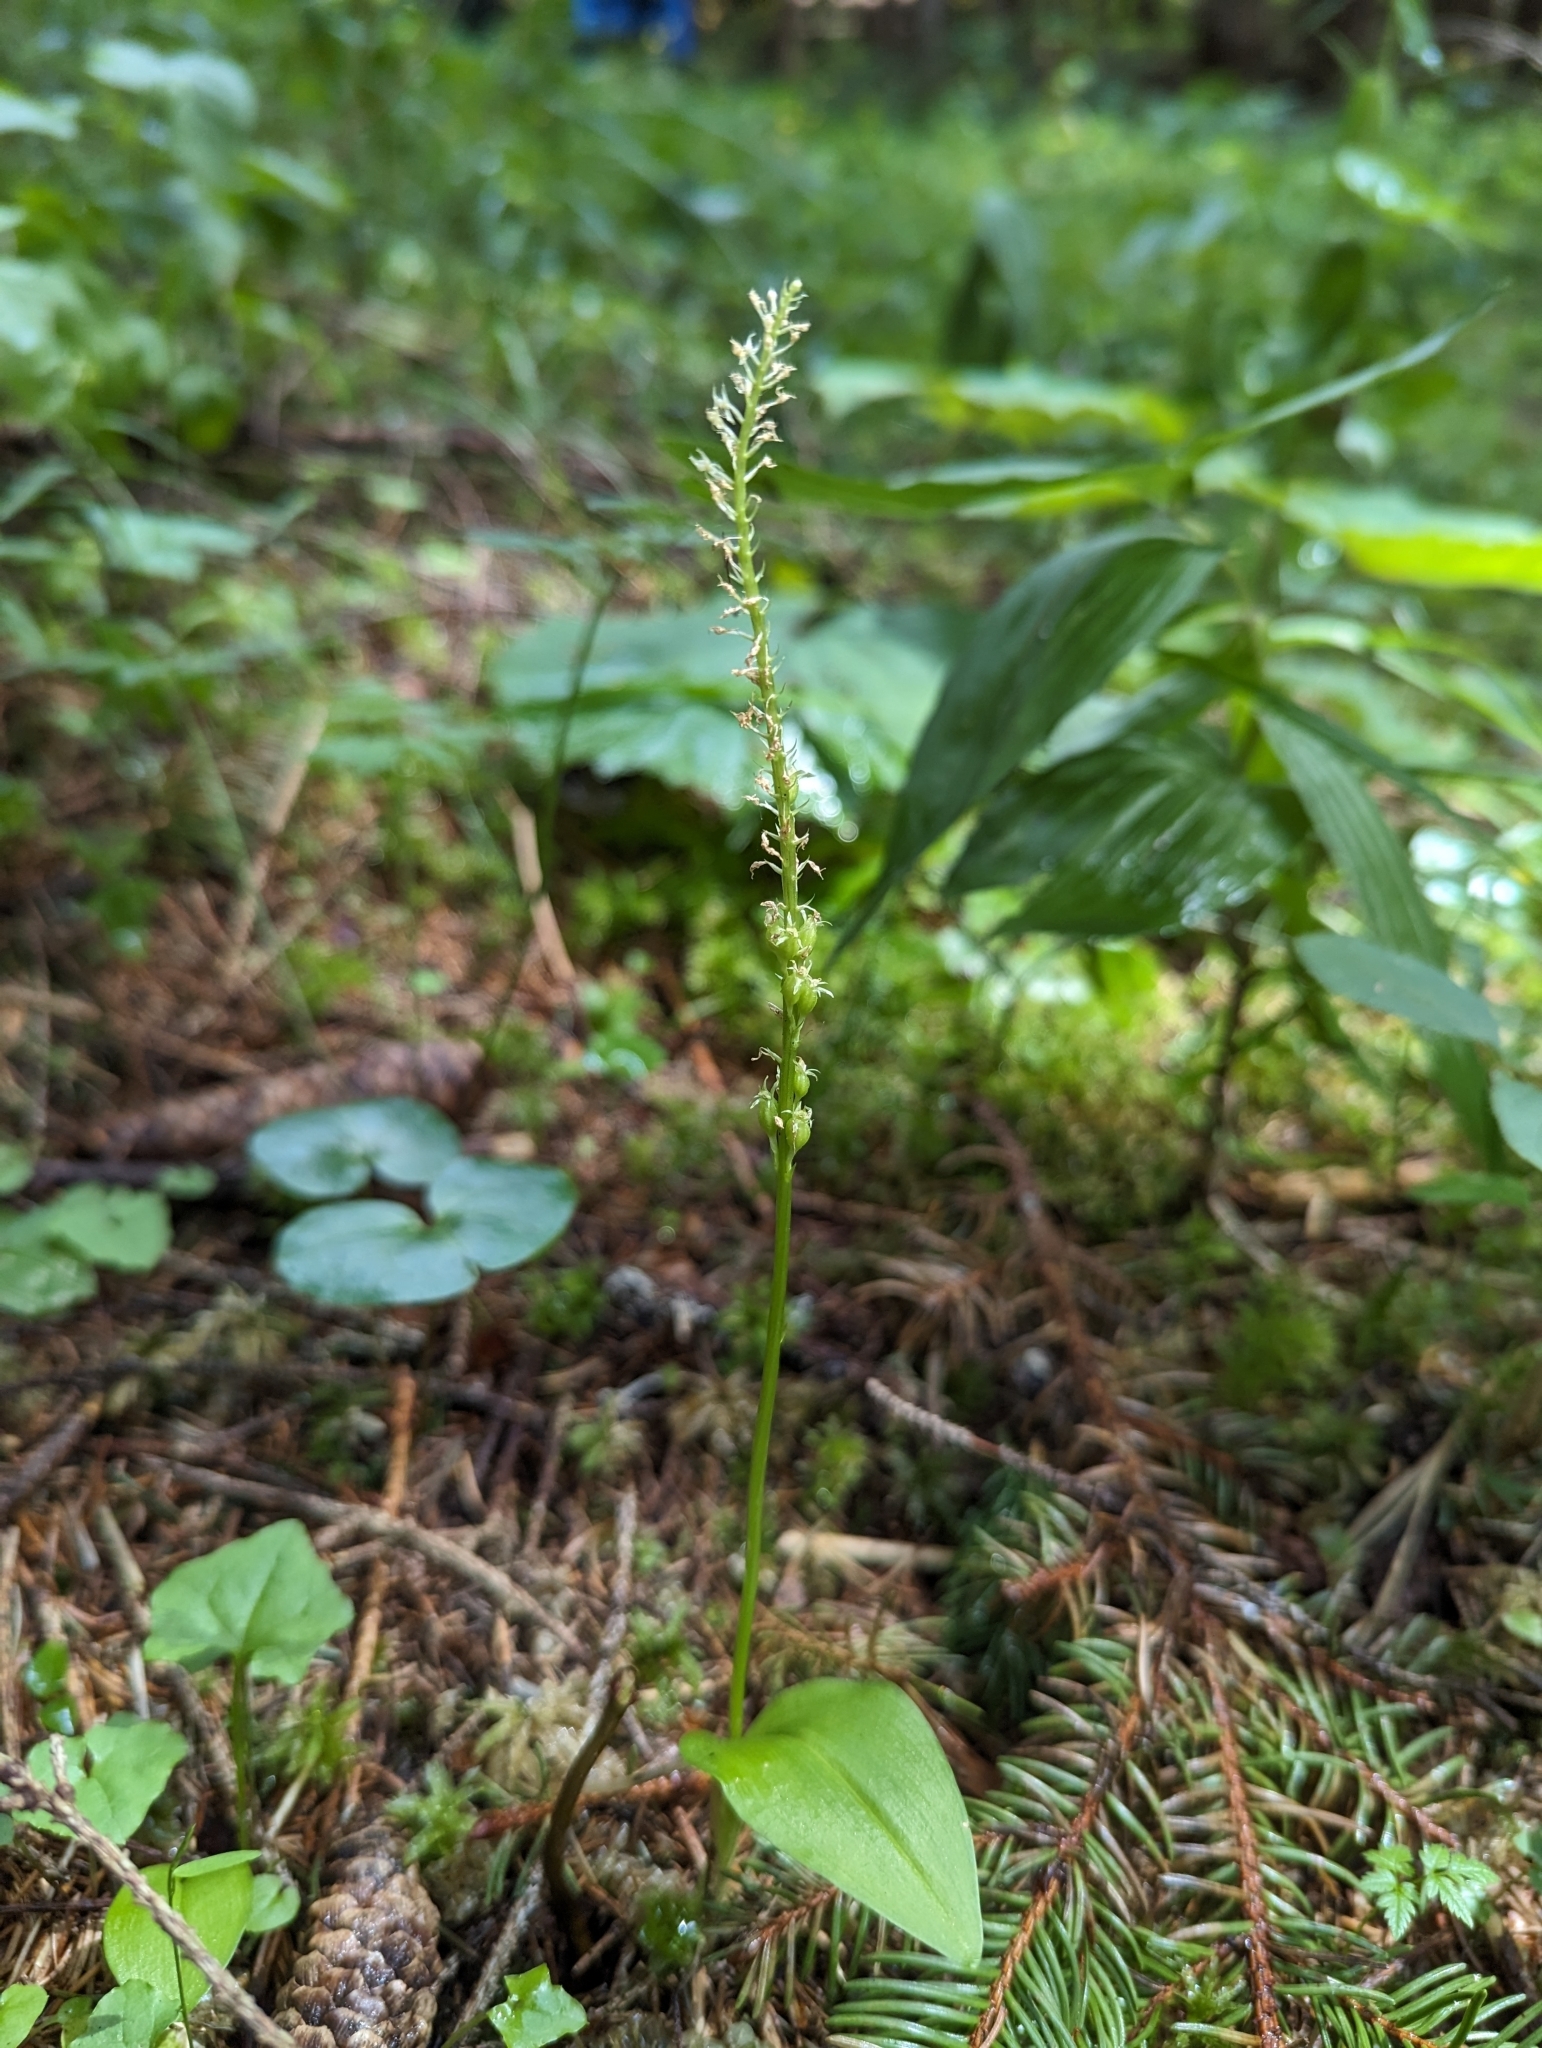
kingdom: Plantae
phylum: Tracheophyta
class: Liliopsida
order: Asparagales
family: Orchidaceae
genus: Malaxis
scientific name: Malaxis monophyllos
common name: White adder's-mouth
